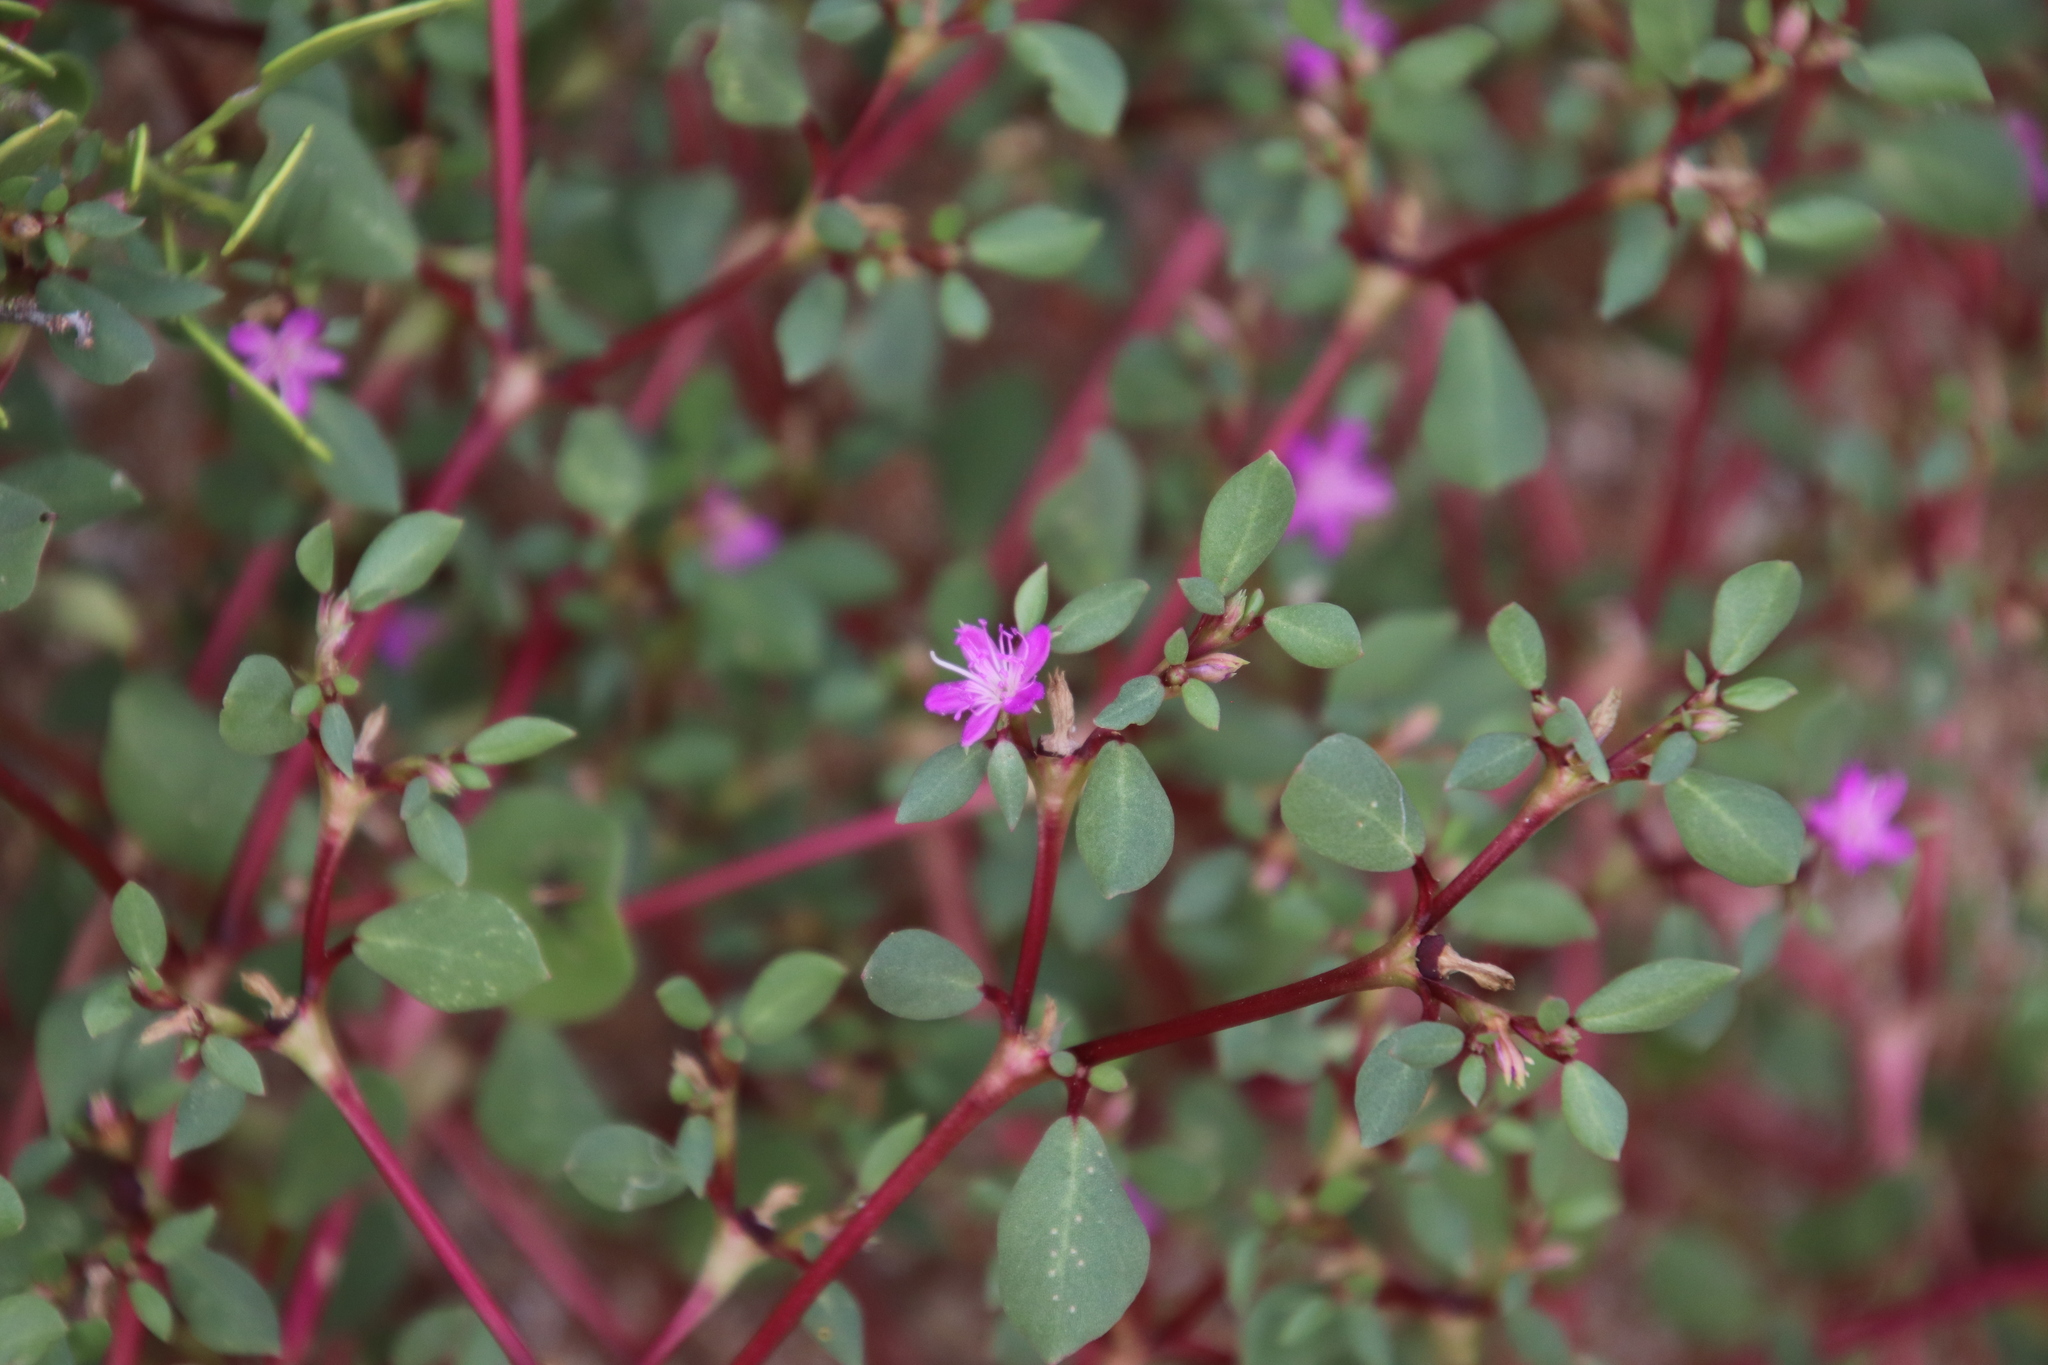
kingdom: Plantae
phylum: Tracheophyta
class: Magnoliopsida
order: Caryophyllales
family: Aizoaceae
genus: Trianthema
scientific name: Trianthema portulacastrum
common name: Desert horsepurslane
